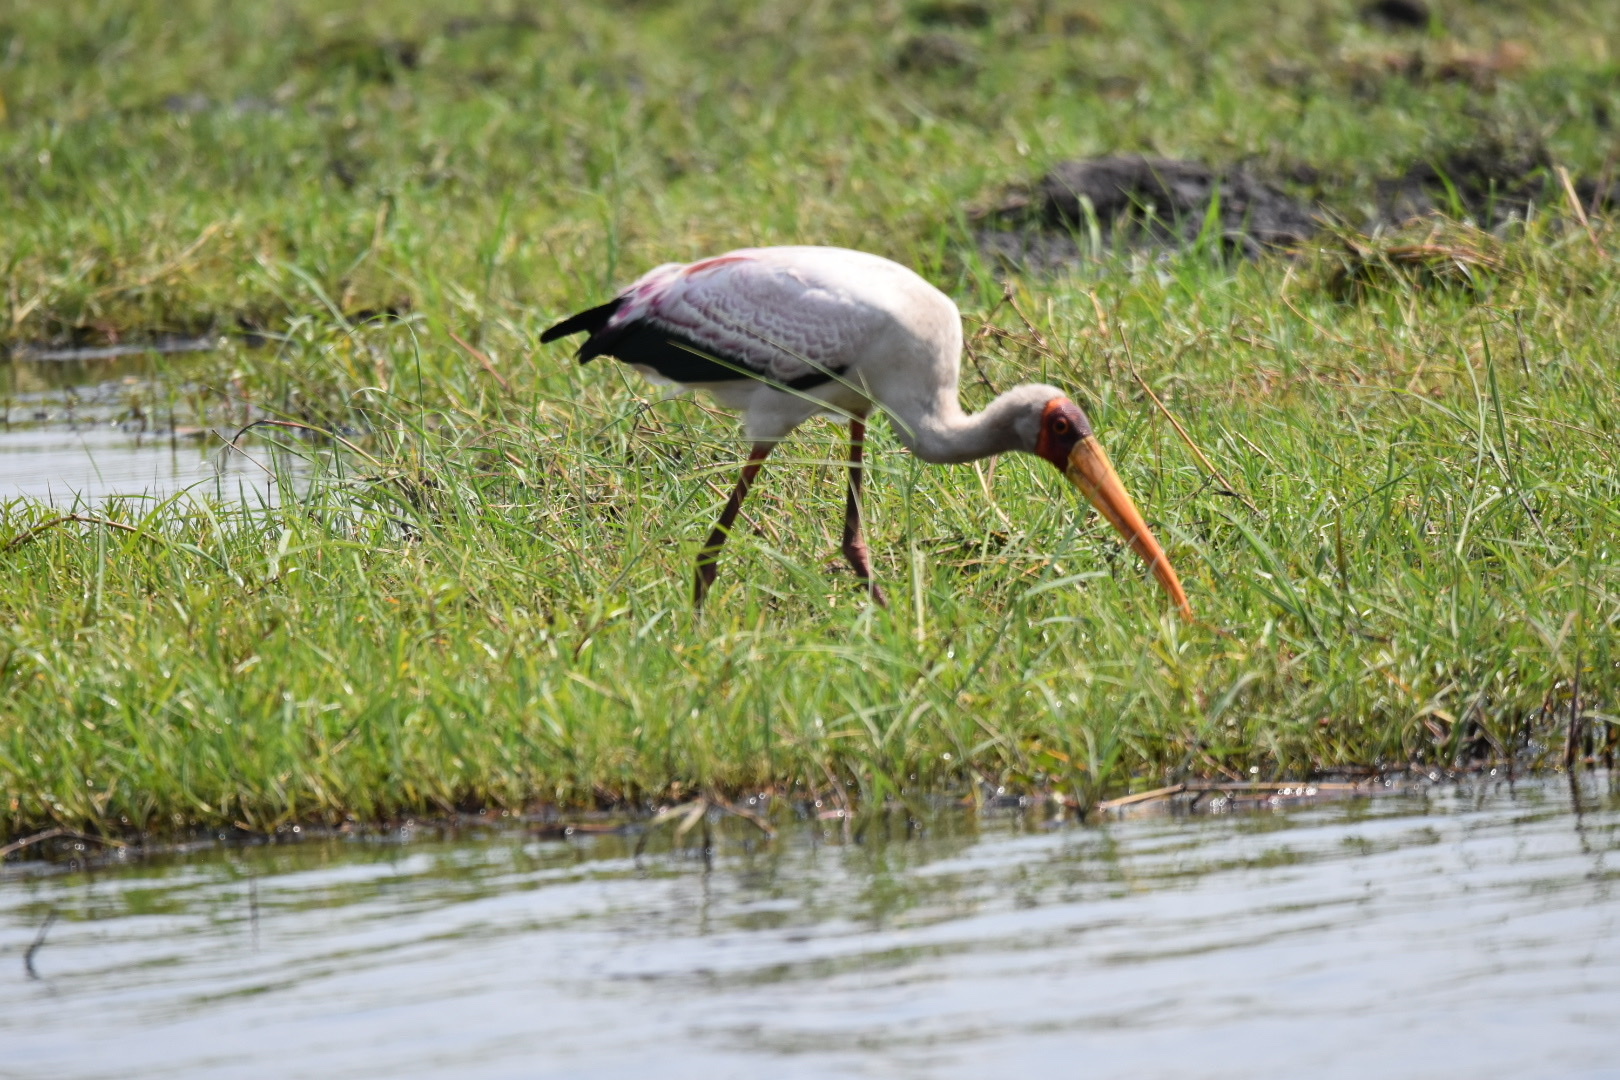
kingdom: Animalia
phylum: Chordata
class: Aves
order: Ciconiiformes
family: Ciconiidae
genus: Mycteria
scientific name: Mycteria ibis
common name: Yellow-billed stork
